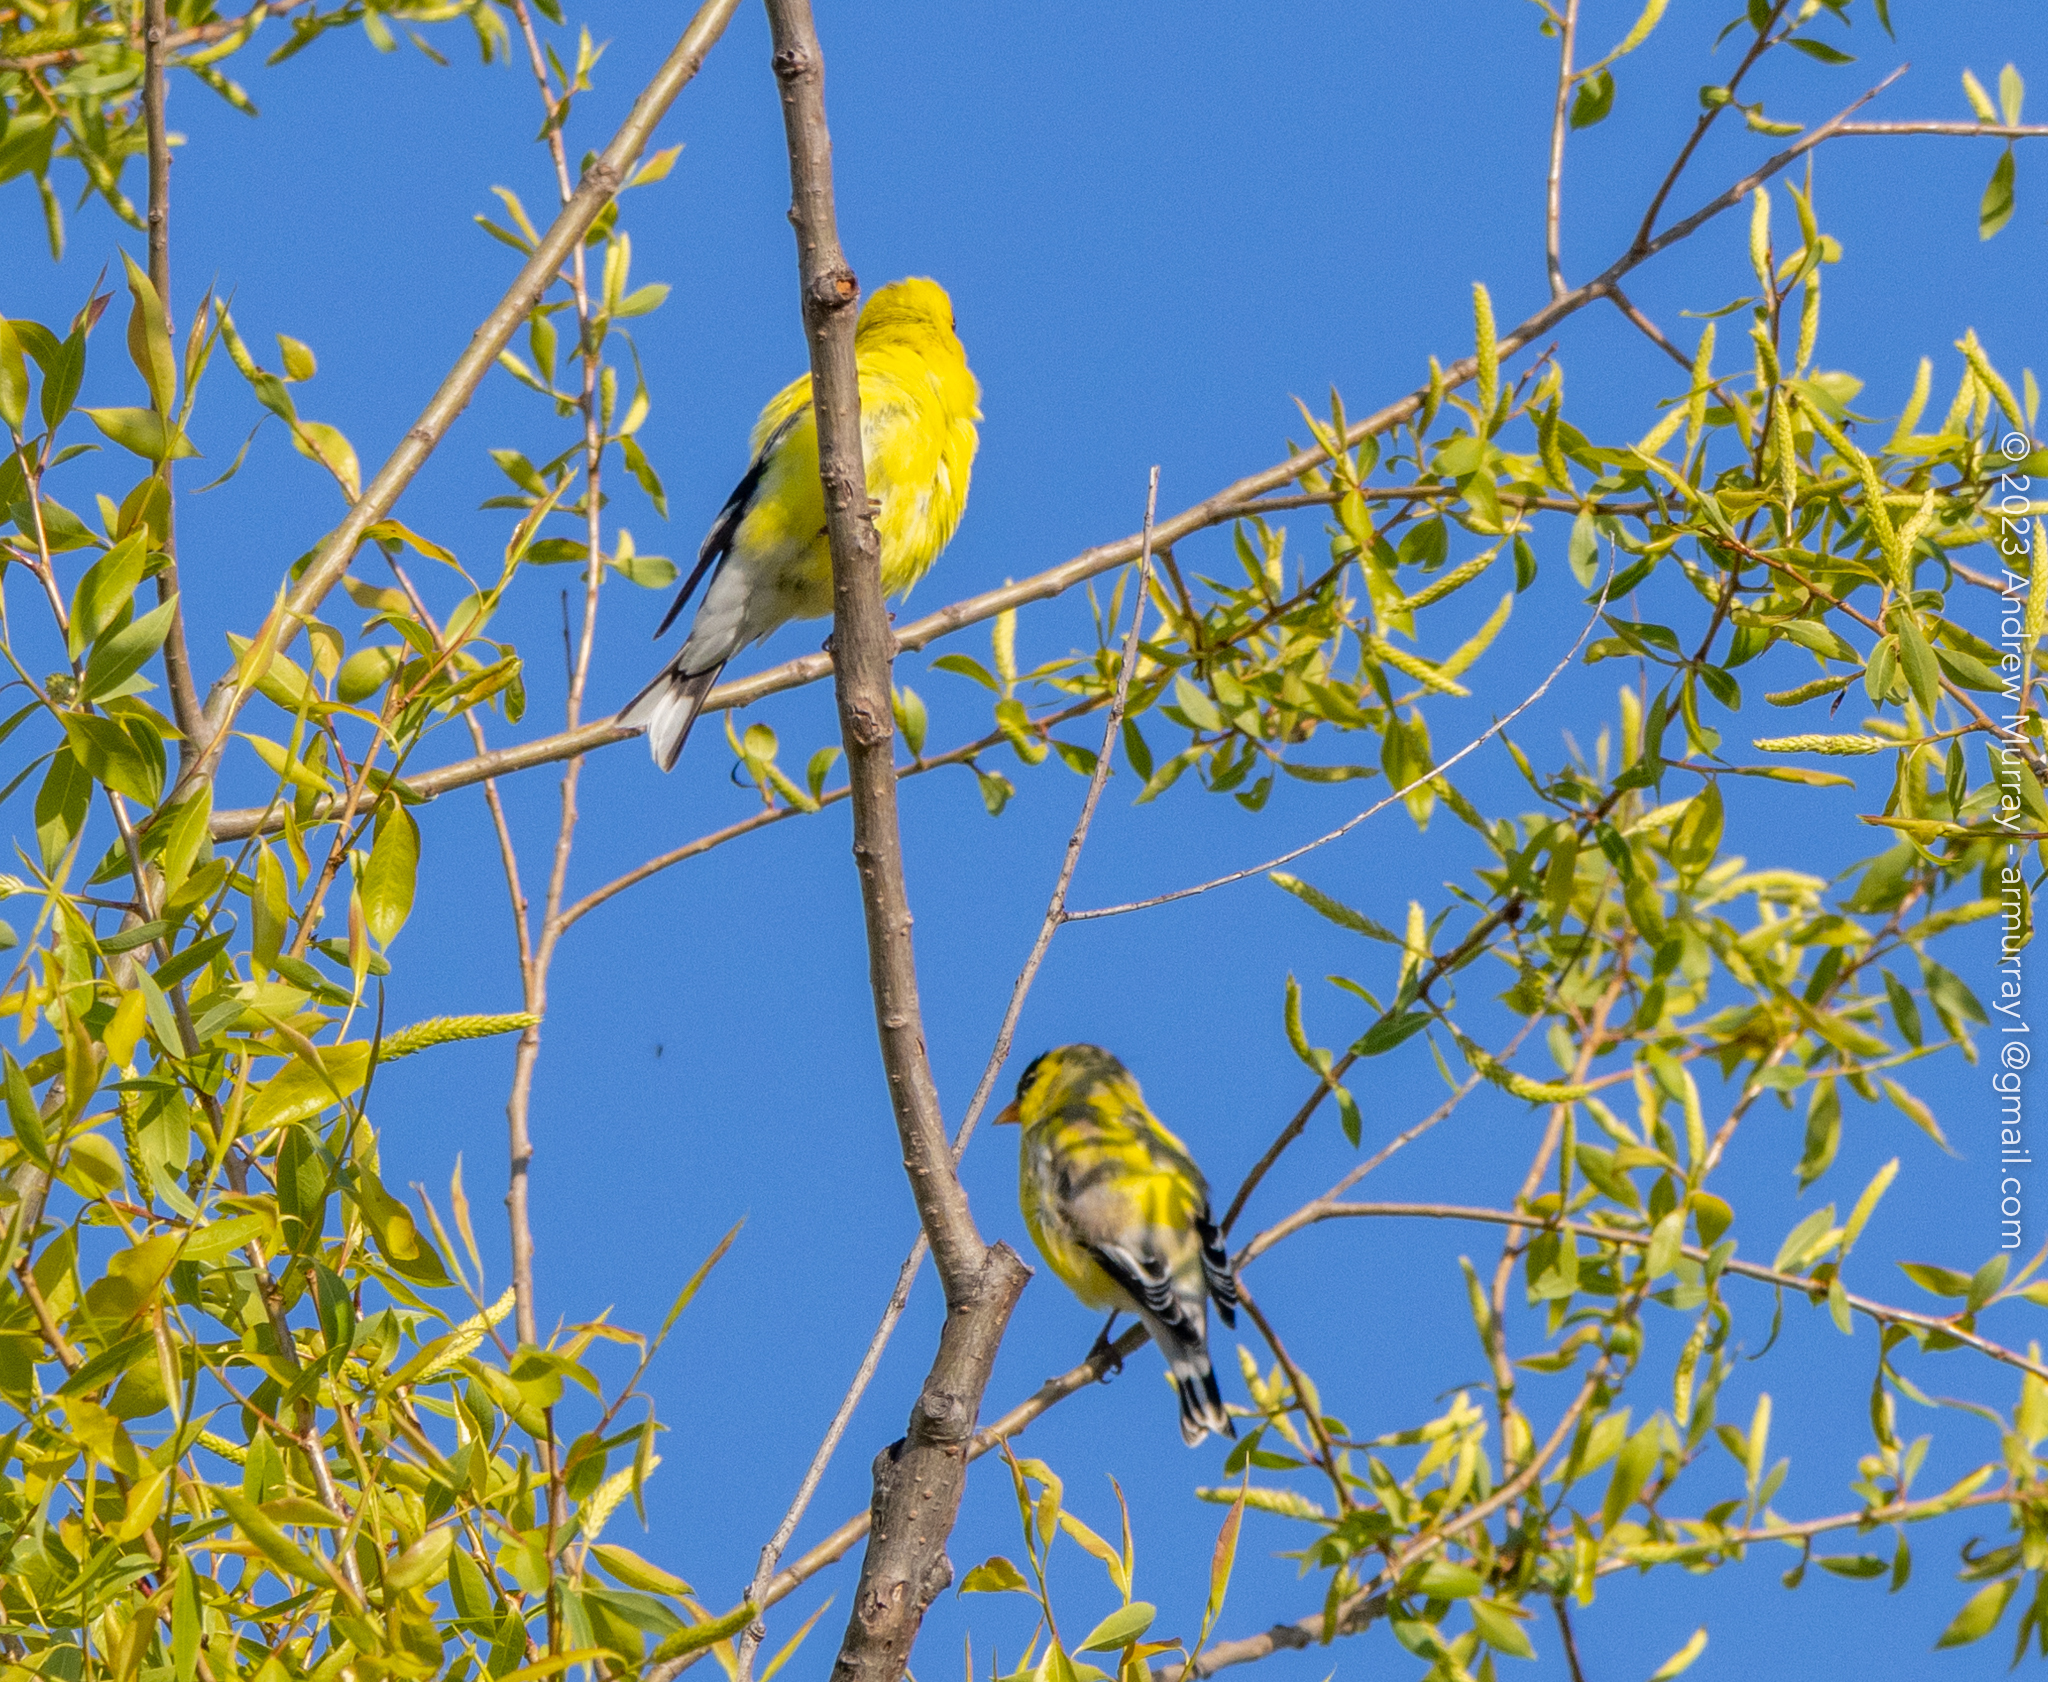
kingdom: Animalia
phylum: Chordata
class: Aves
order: Passeriformes
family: Fringillidae
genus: Spinus
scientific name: Spinus tristis
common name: American goldfinch
